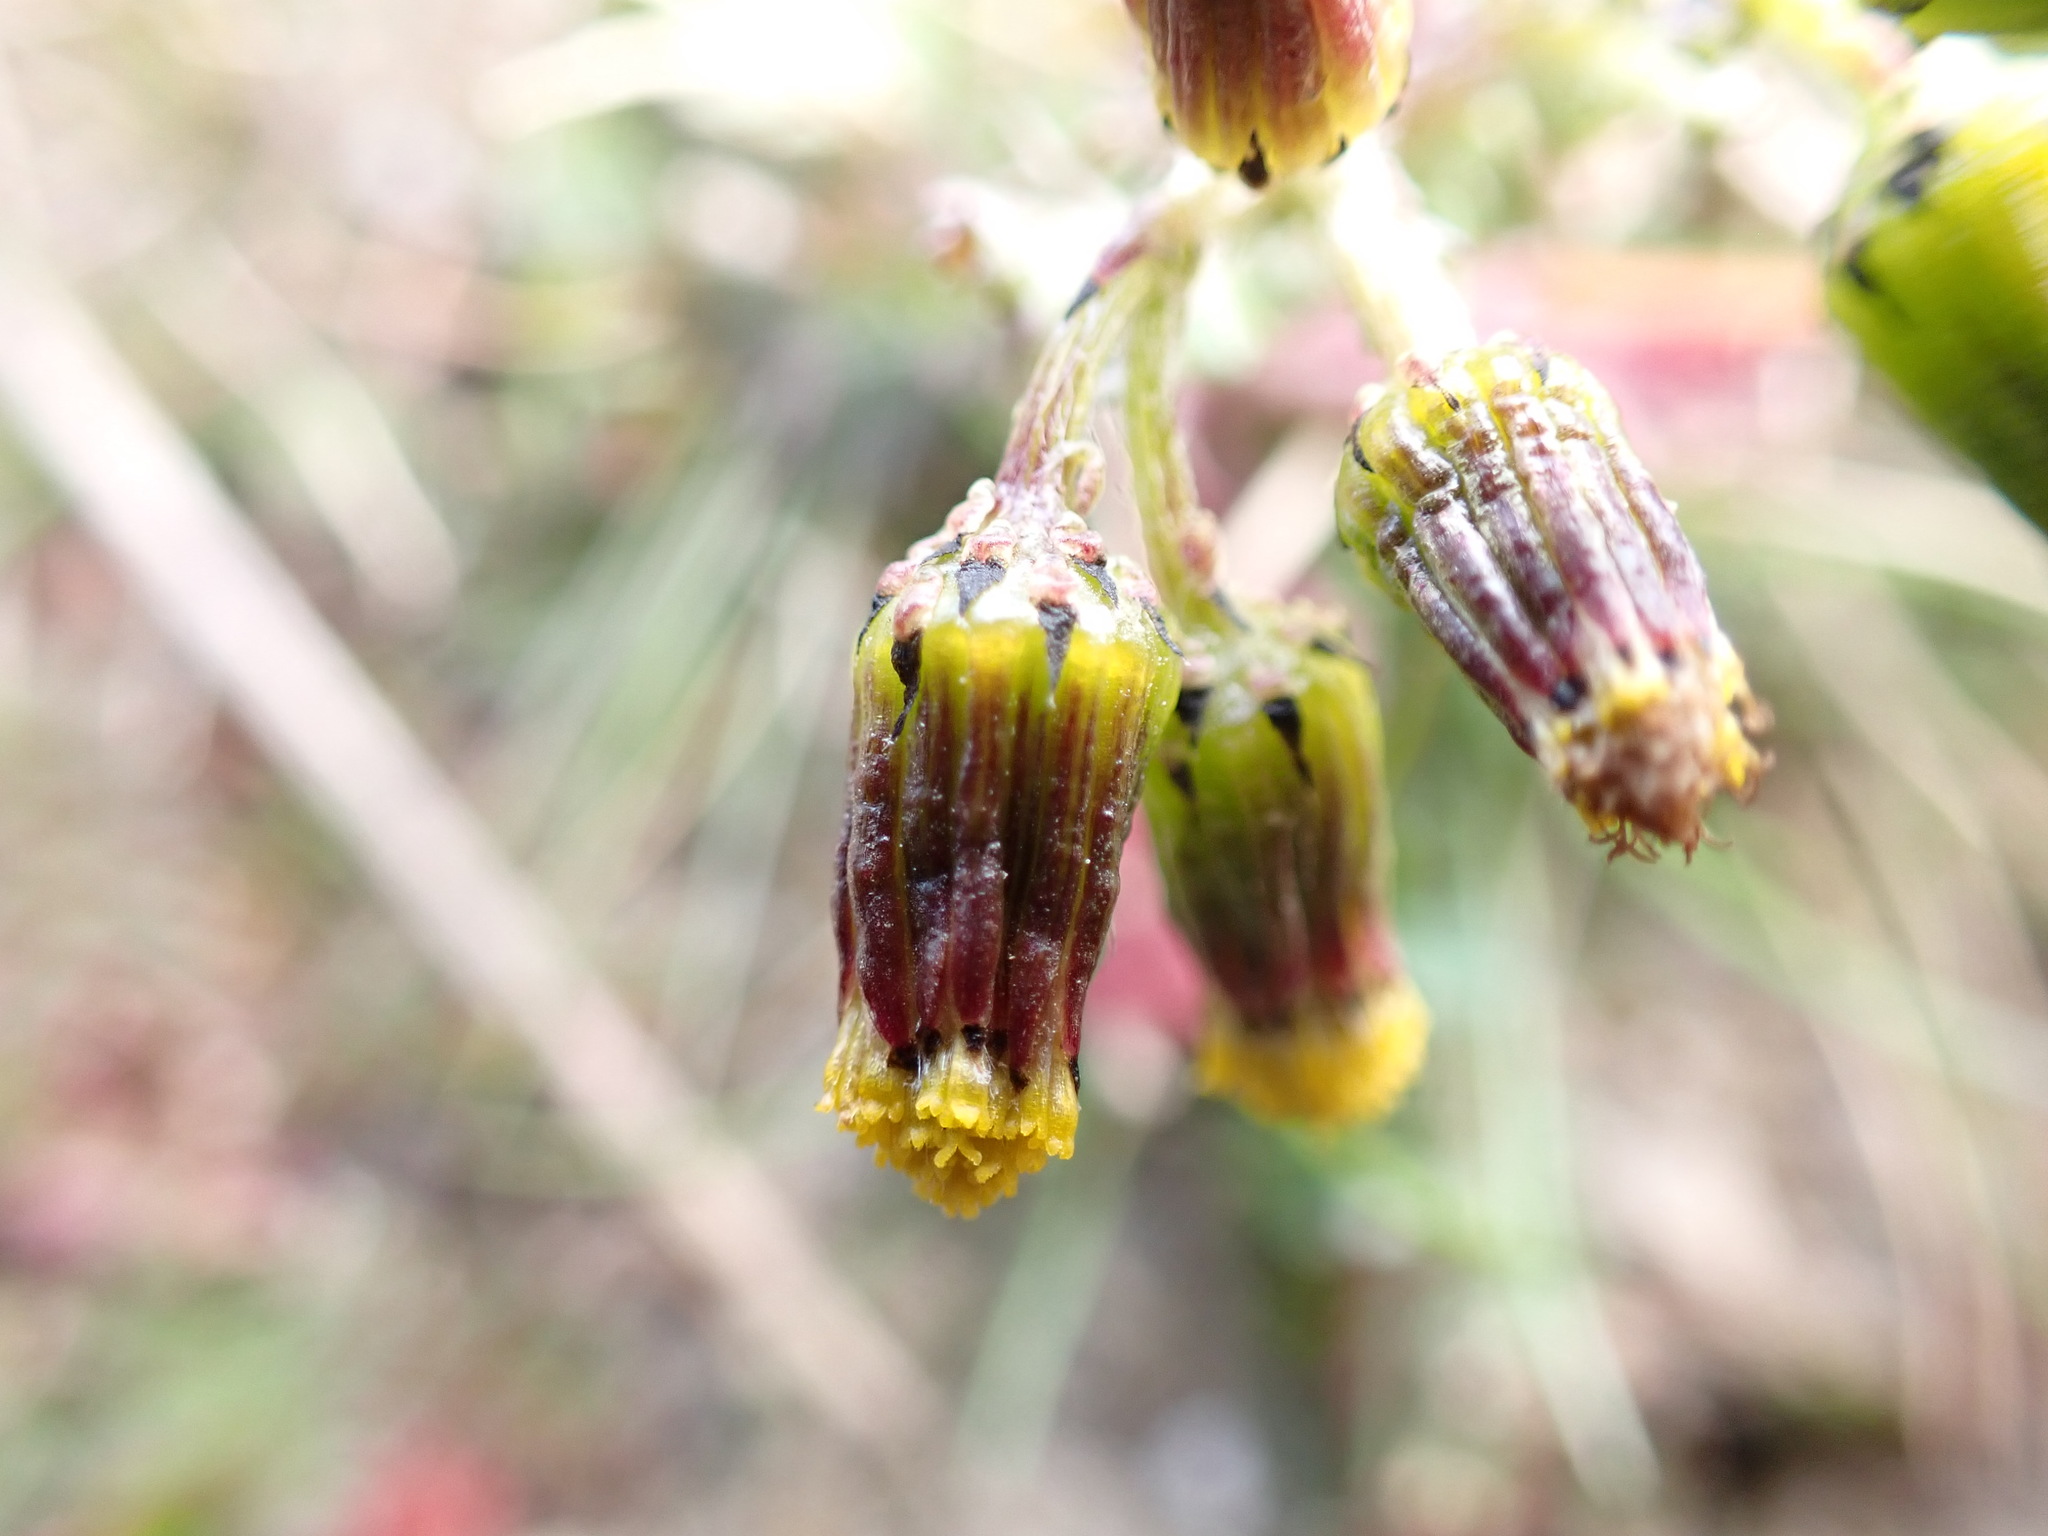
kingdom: Plantae
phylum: Tracheophyta
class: Magnoliopsida
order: Asterales
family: Asteraceae
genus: Senecio
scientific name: Senecio vulgaris
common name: Old-man-in-the-spring
